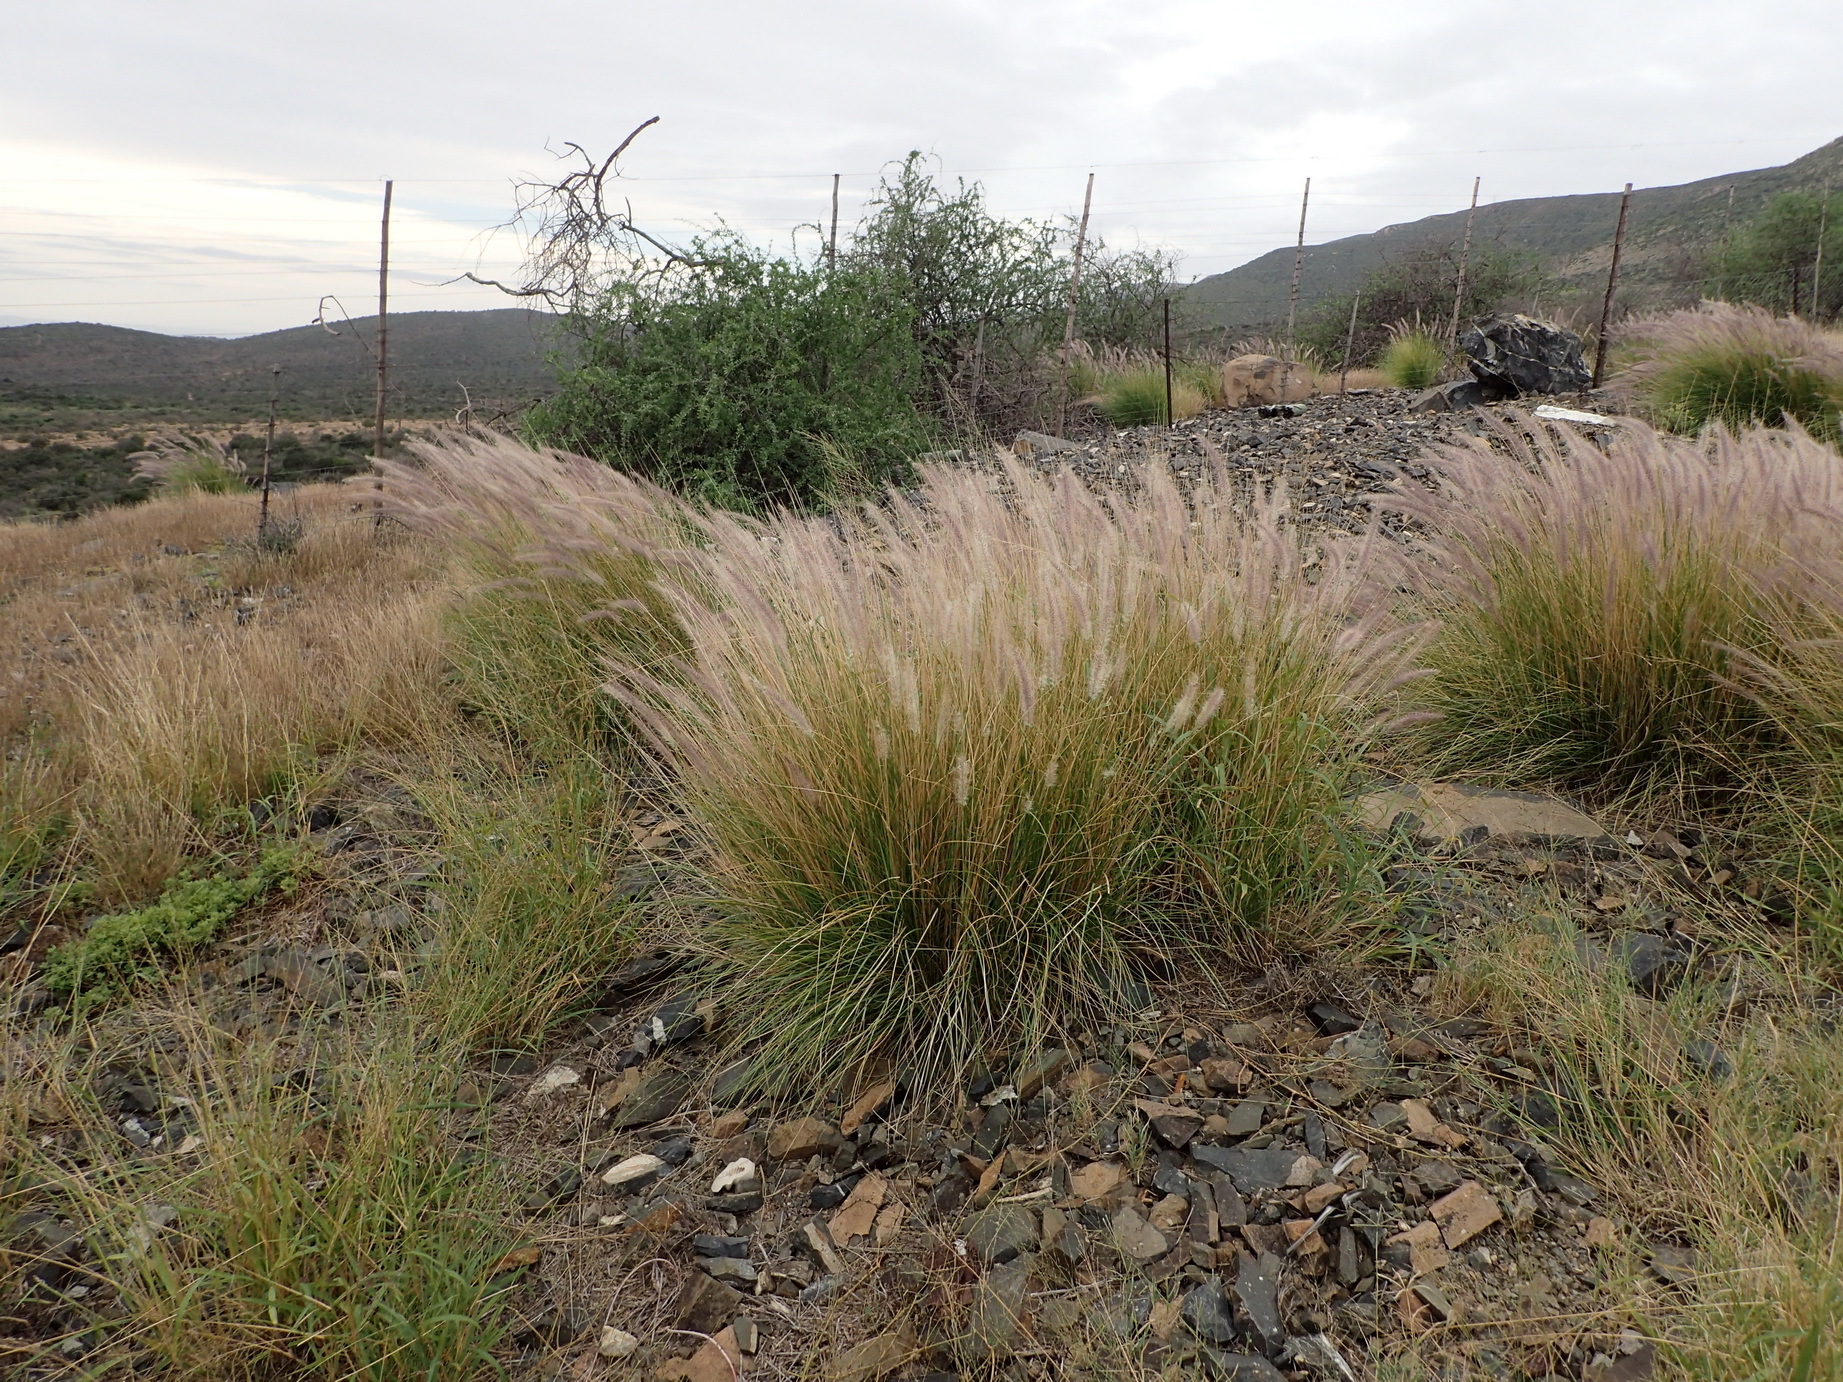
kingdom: Plantae
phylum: Tracheophyta
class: Liliopsida
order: Poales
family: Poaceae
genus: Cenchrus
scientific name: Cenchrus setaceus
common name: Crimson fountaingrass
